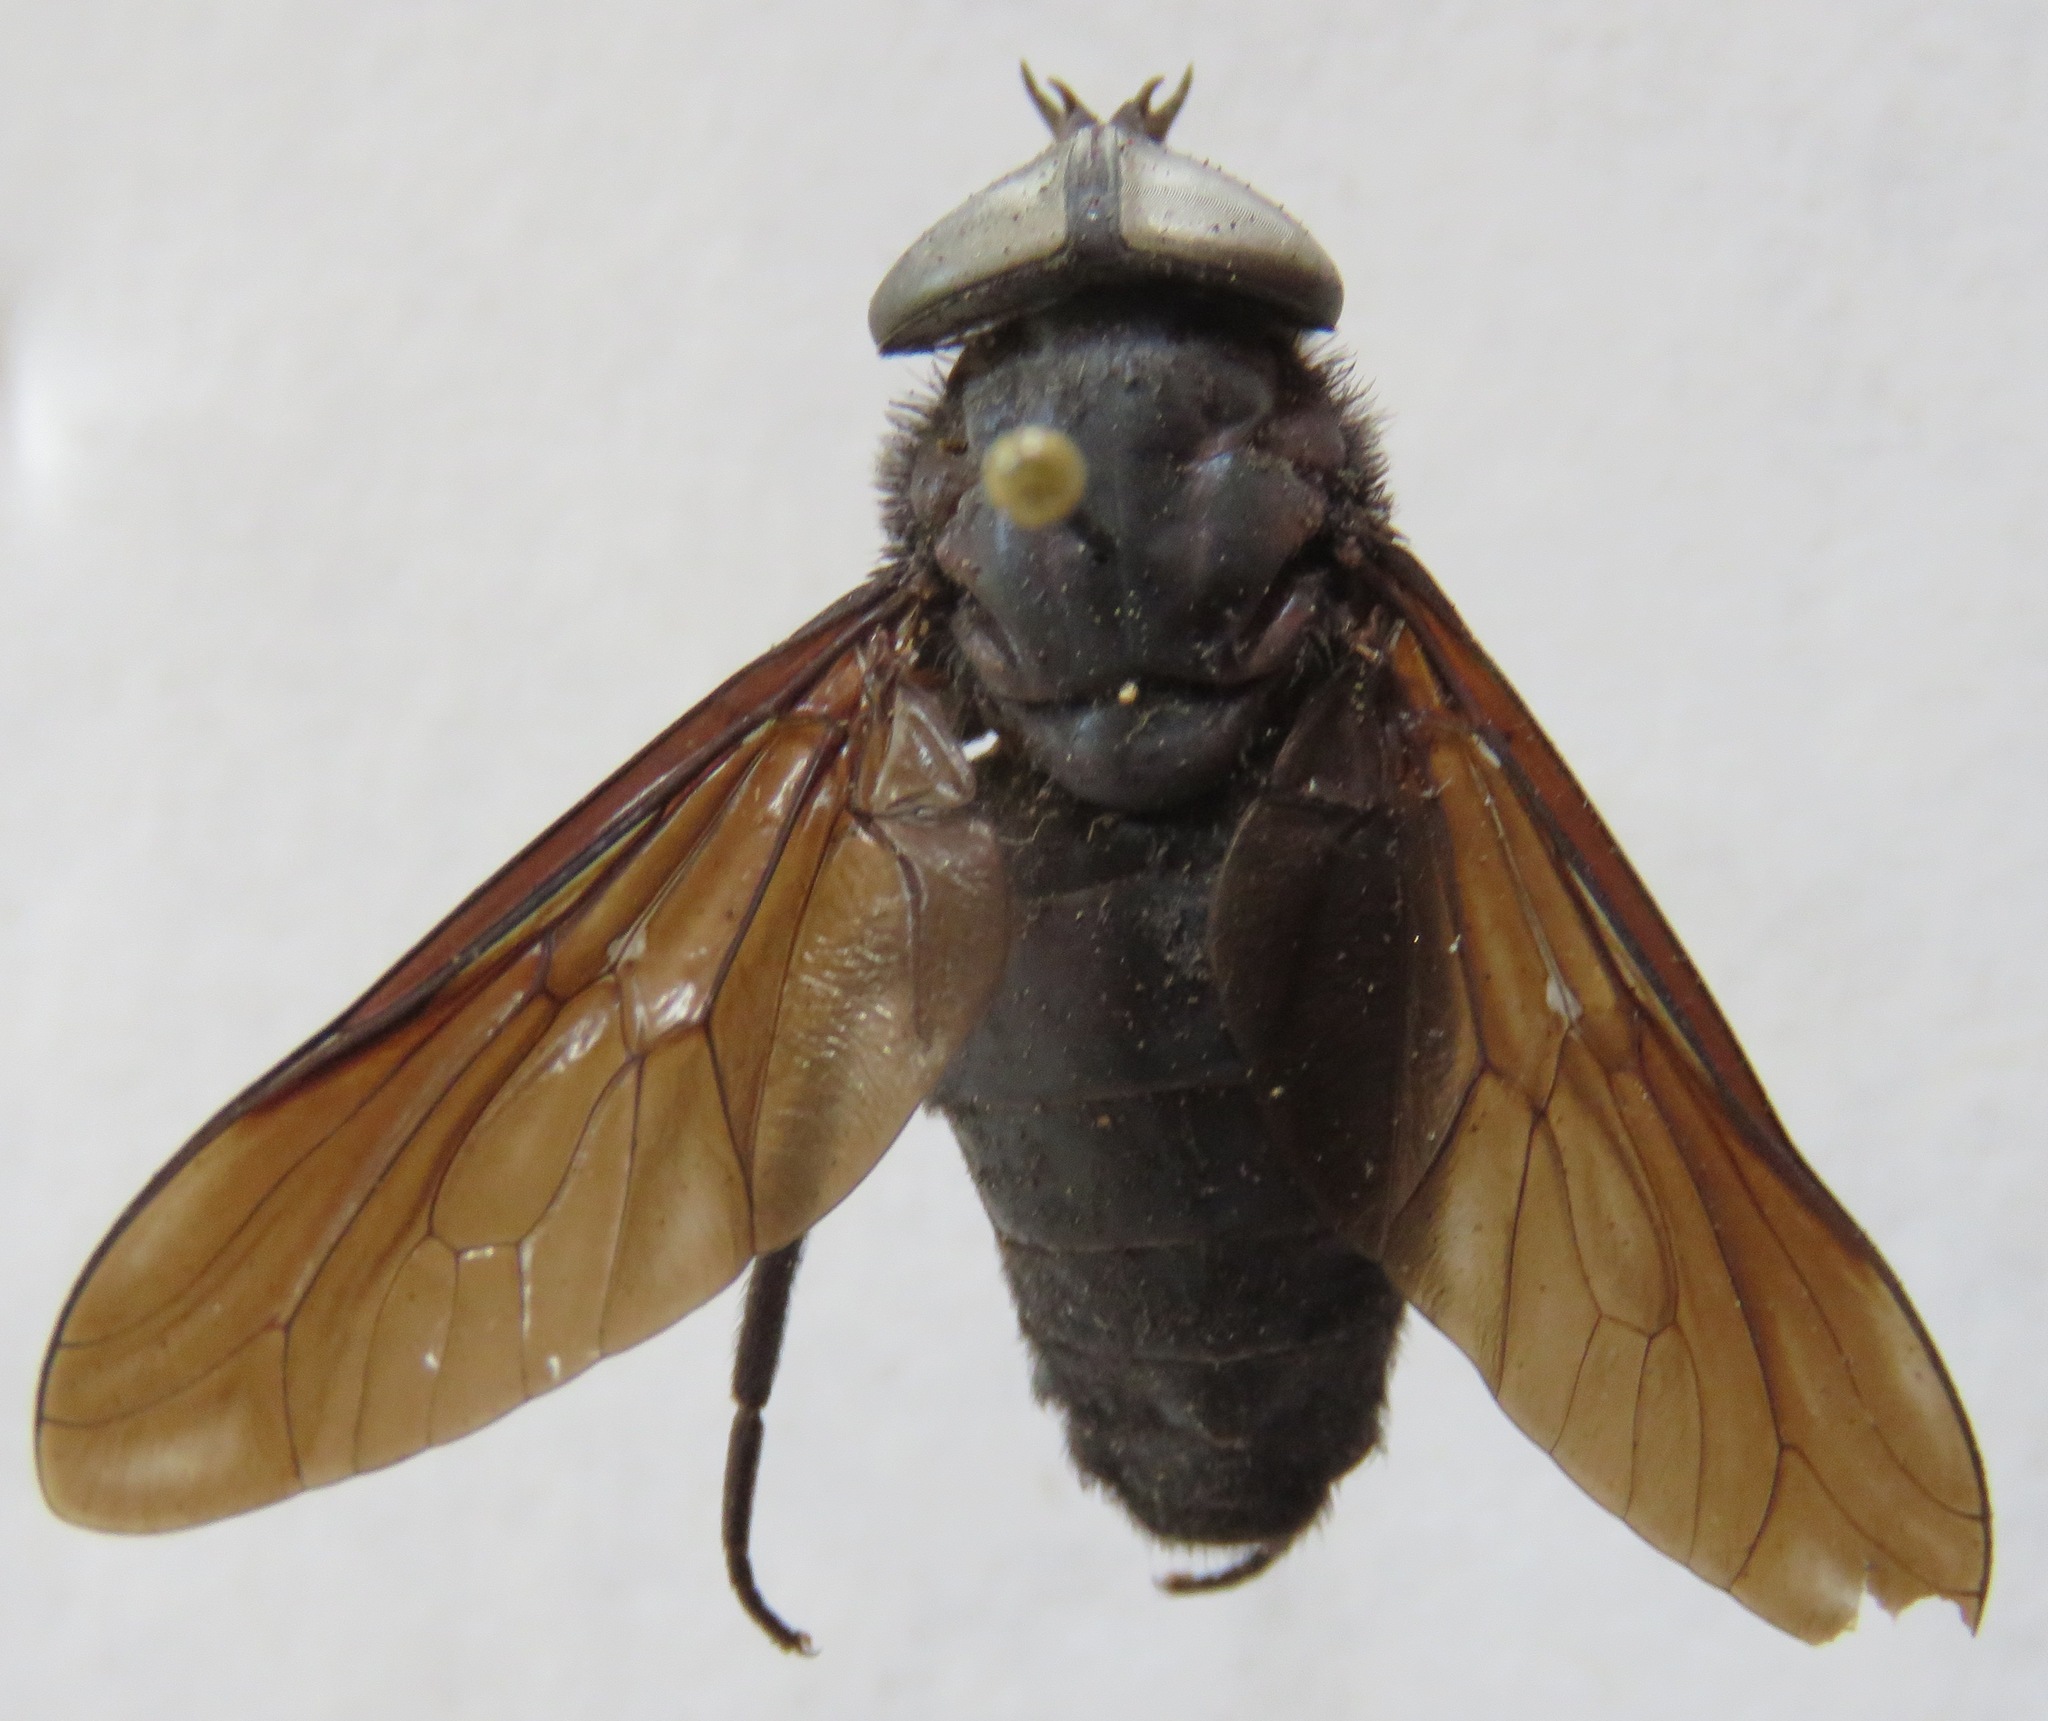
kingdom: Animalia
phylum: Arthropoda
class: Insecta
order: Diptera
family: Tabanidae
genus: Tabanus
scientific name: Tabanus erebus
